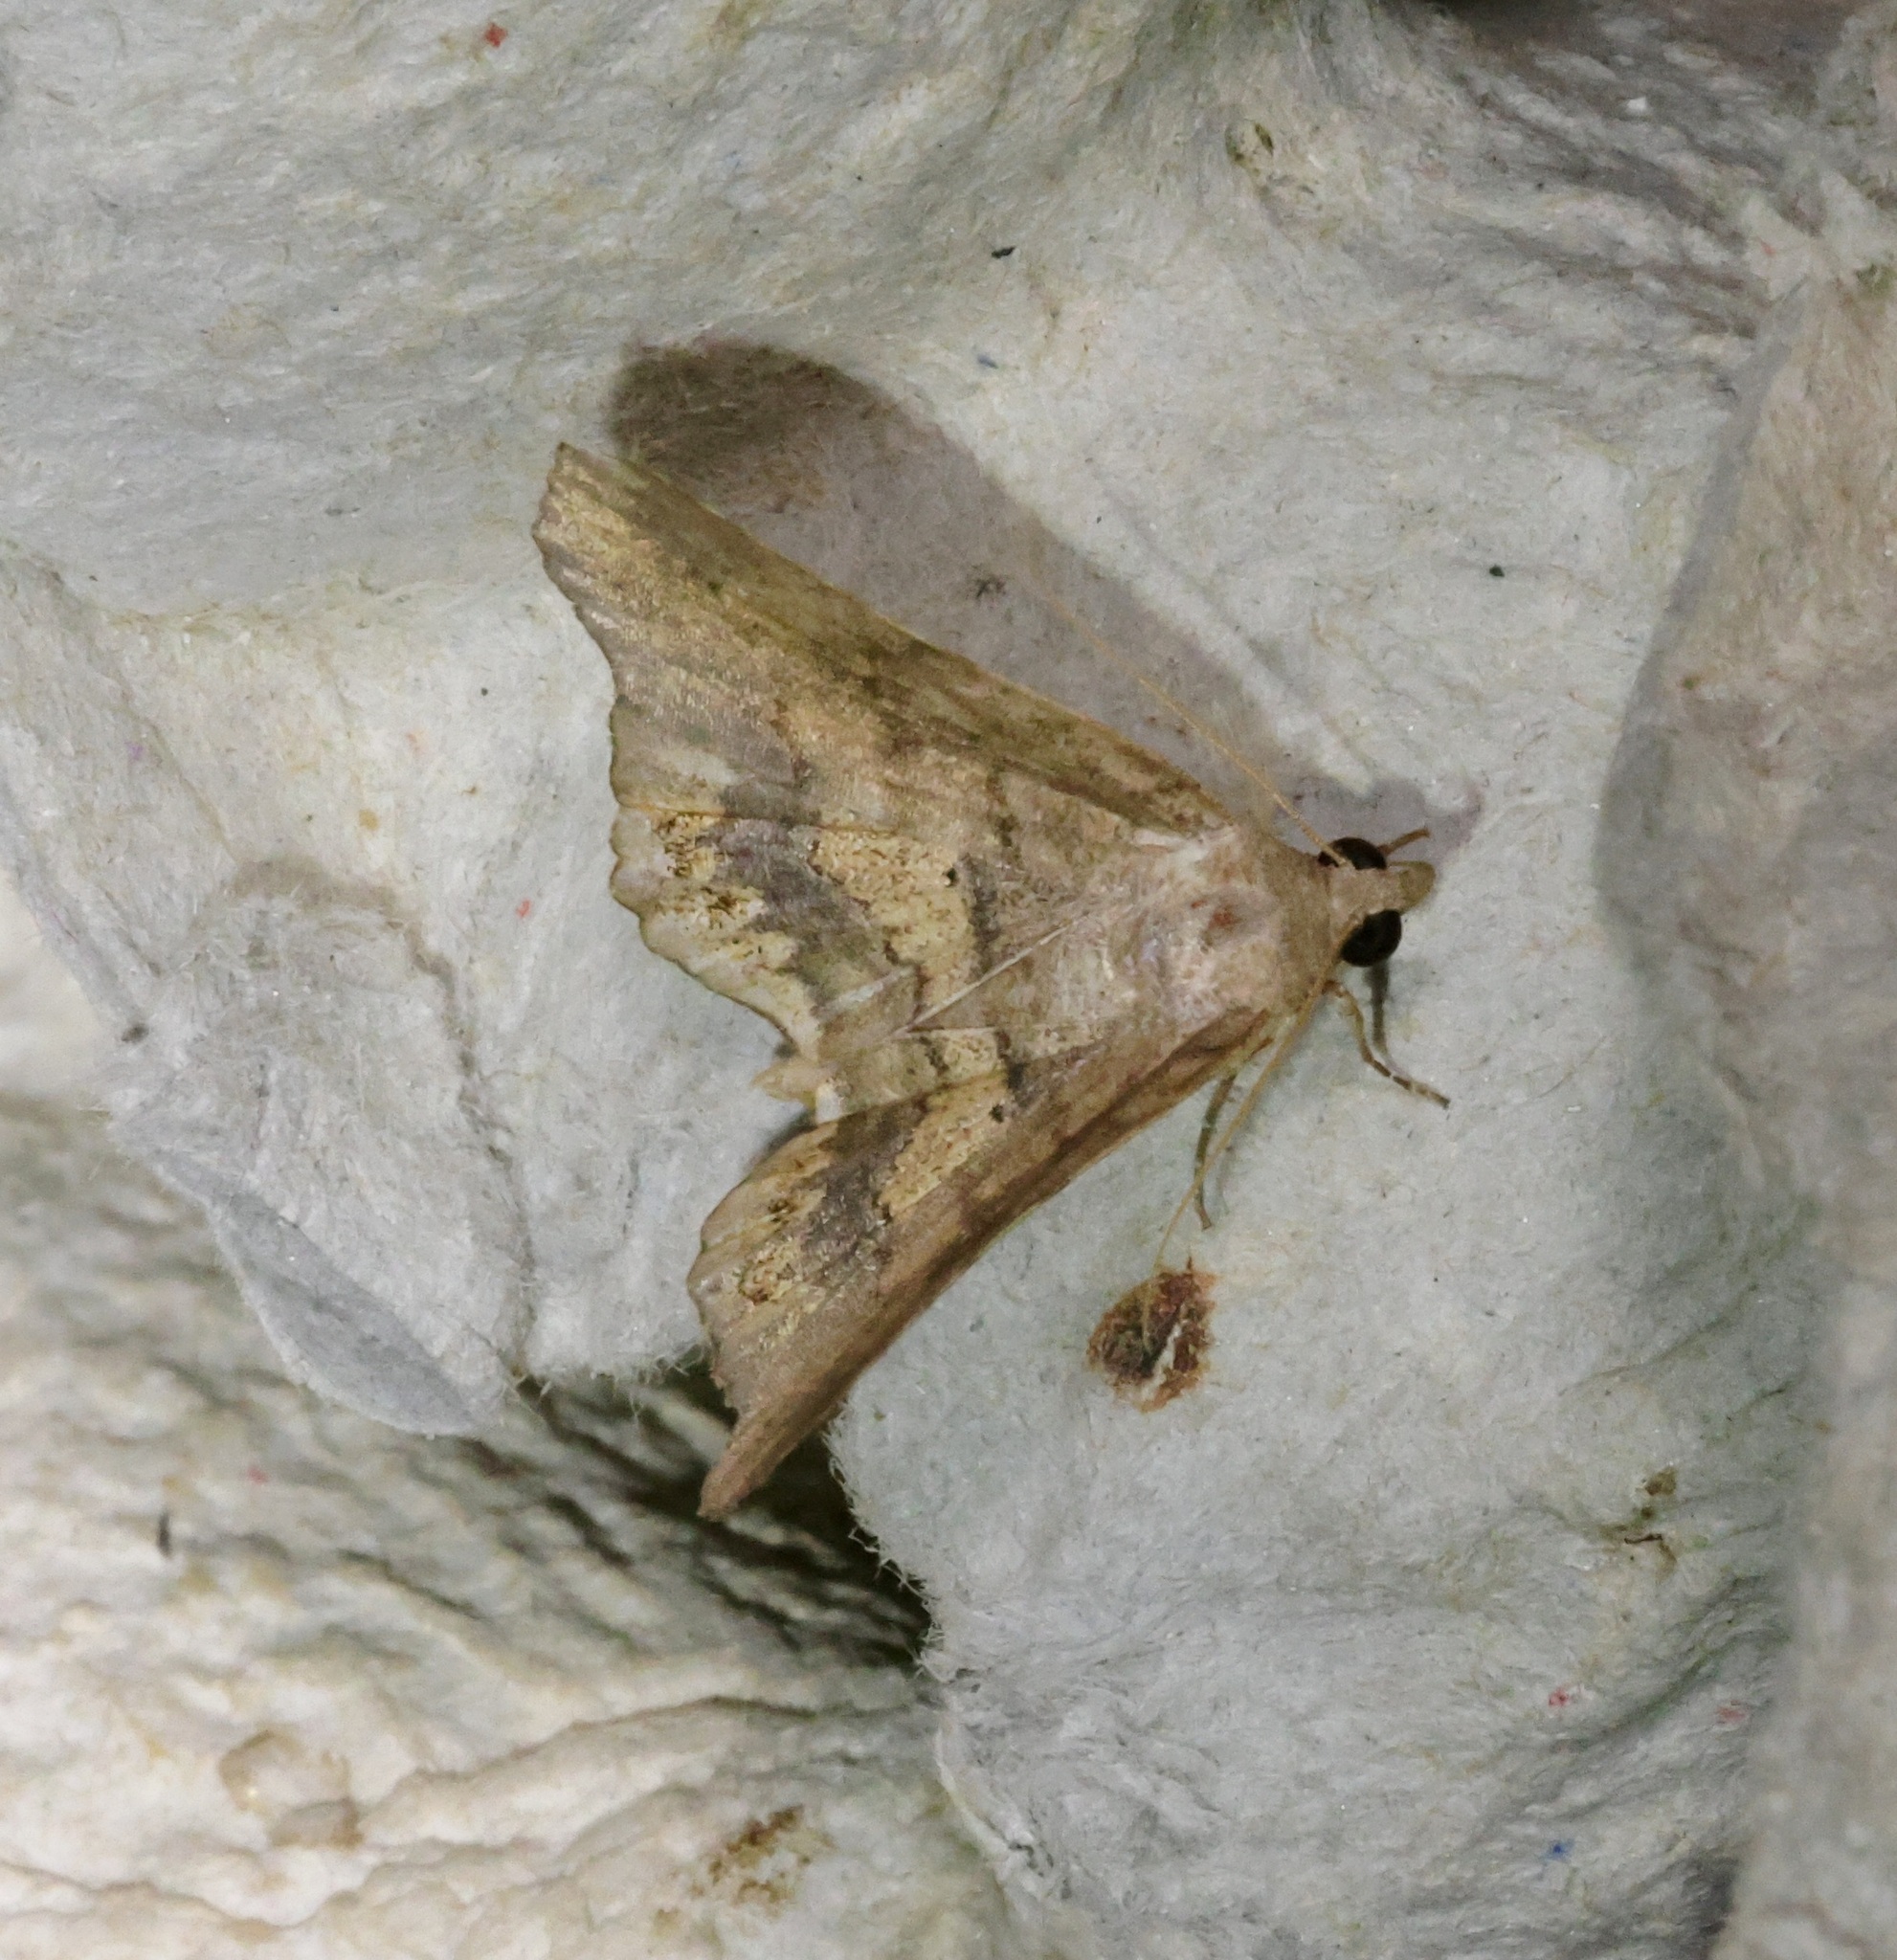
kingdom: Animalia
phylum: Arthropoda
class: Insecta
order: Lepidoptera
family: Erebidae
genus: Pangrapta
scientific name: Pangrapta bicornuta
